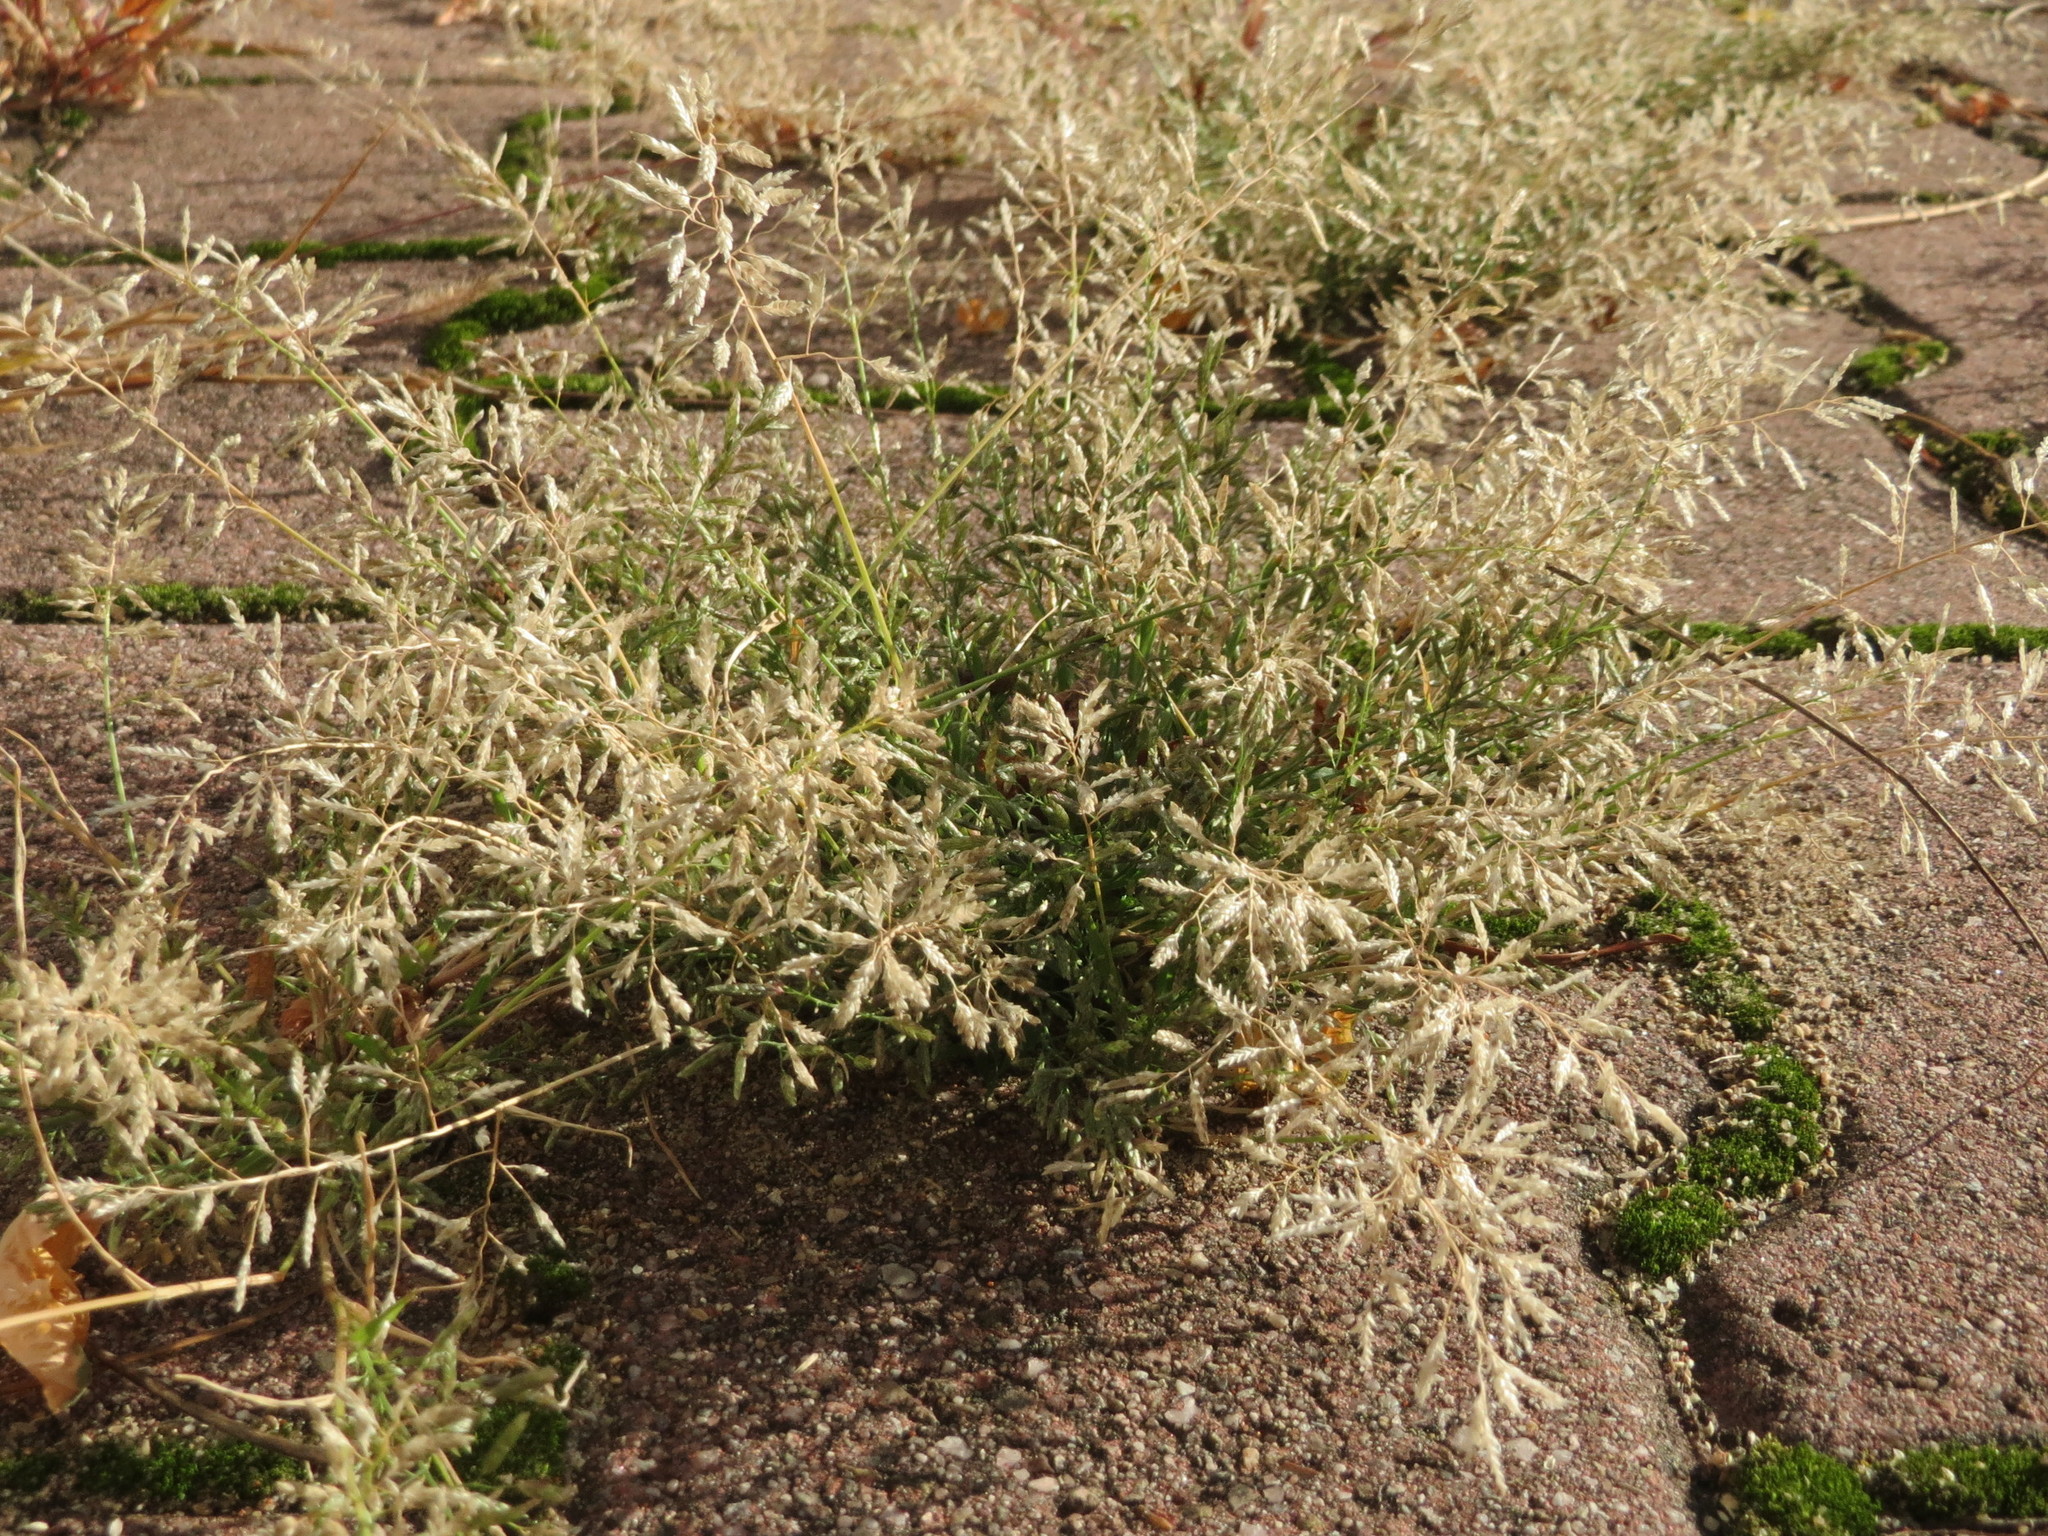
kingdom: Plantae
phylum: Tracheophyta
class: Liliopsida
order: Poales
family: Poaceae
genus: Eragrostis
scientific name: Eragrostis minor
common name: Small love-grass
